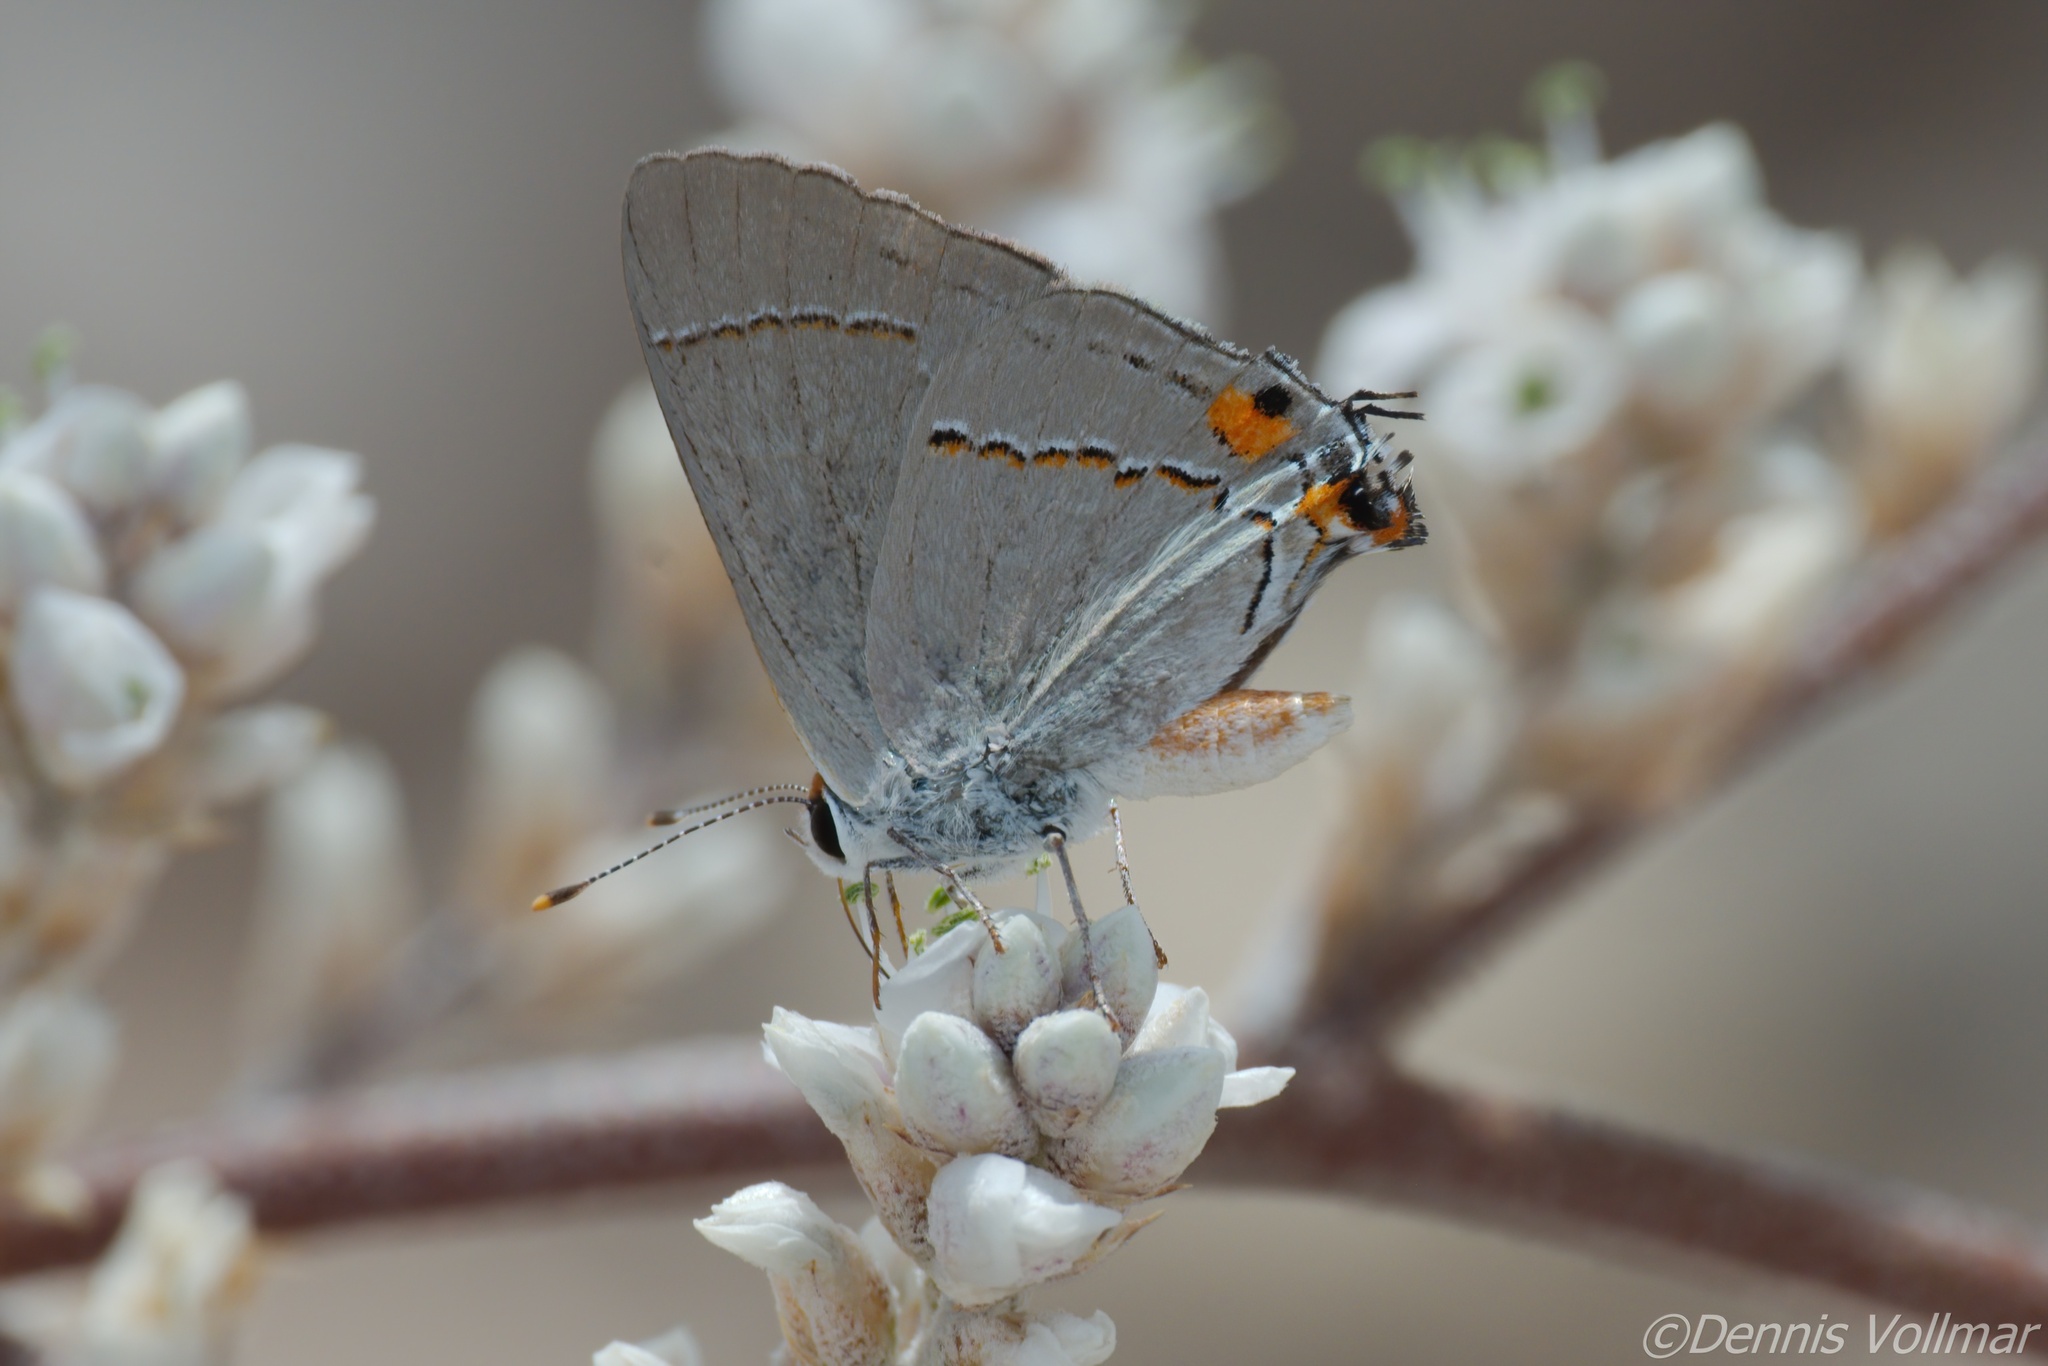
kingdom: Animalia
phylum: Arthropoda
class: Insecta
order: Lepidoptera
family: Lycaenidae
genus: Strymon
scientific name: Strymon melinus
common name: Gray hairstreak
